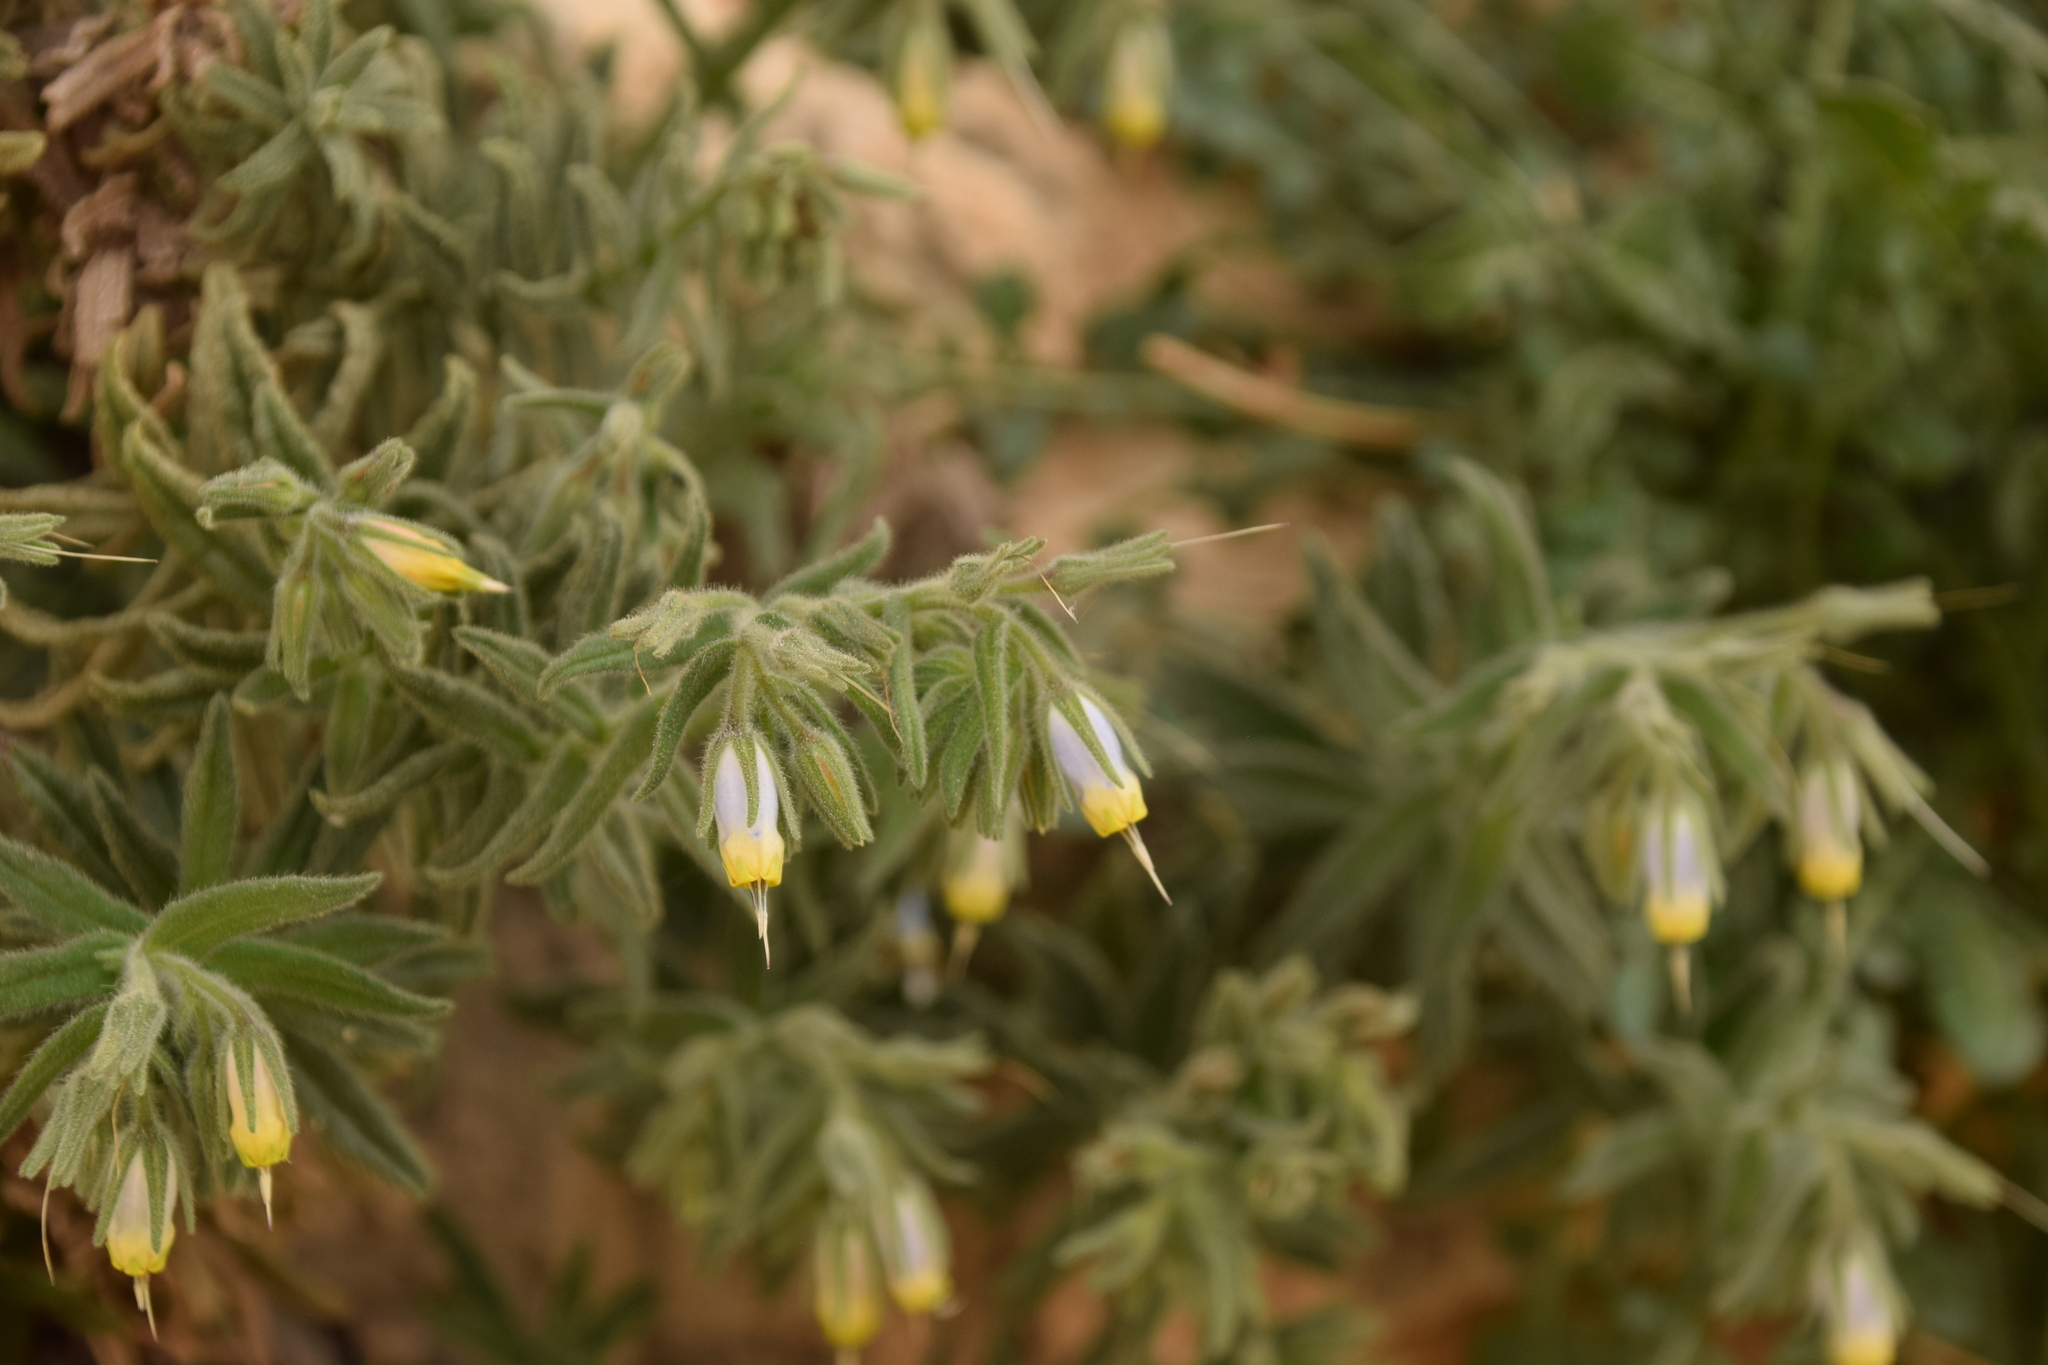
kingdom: Plantae
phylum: Tracheophyta
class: Magnoliopsida
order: Boraginales
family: Boraginaceae
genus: Podonosma
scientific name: Podonosma orientalis
